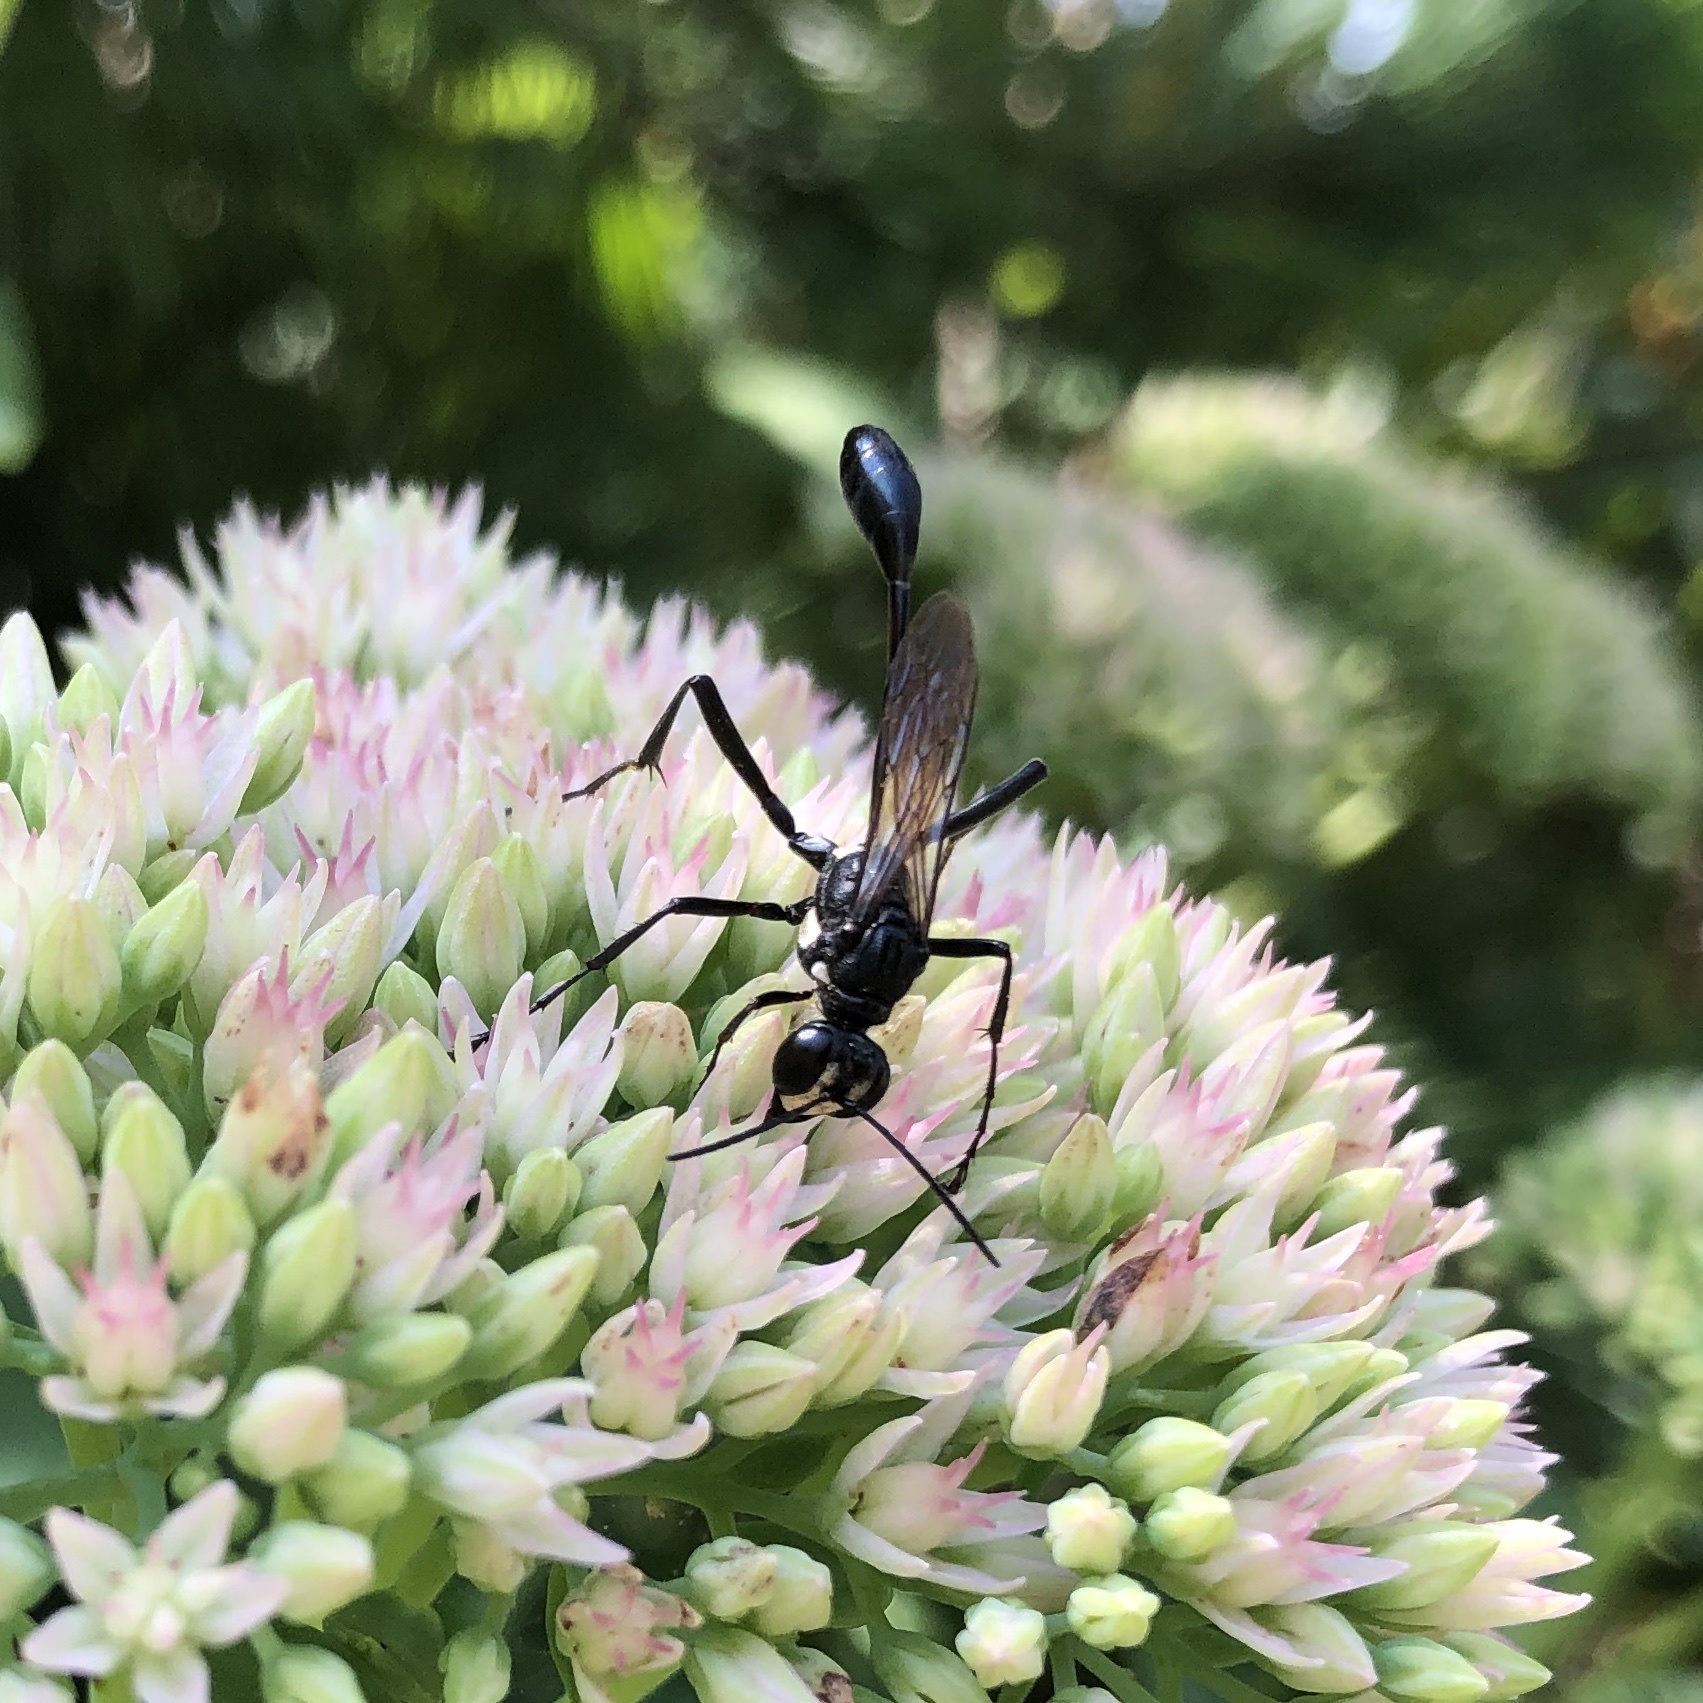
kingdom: Animalia
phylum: Arthropoda
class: Insecta
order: Hymenoptera
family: Sphecidae
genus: Eremnophila
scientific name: Eremnophila aureonotata
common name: Gold-marked thread-waisted wasp
